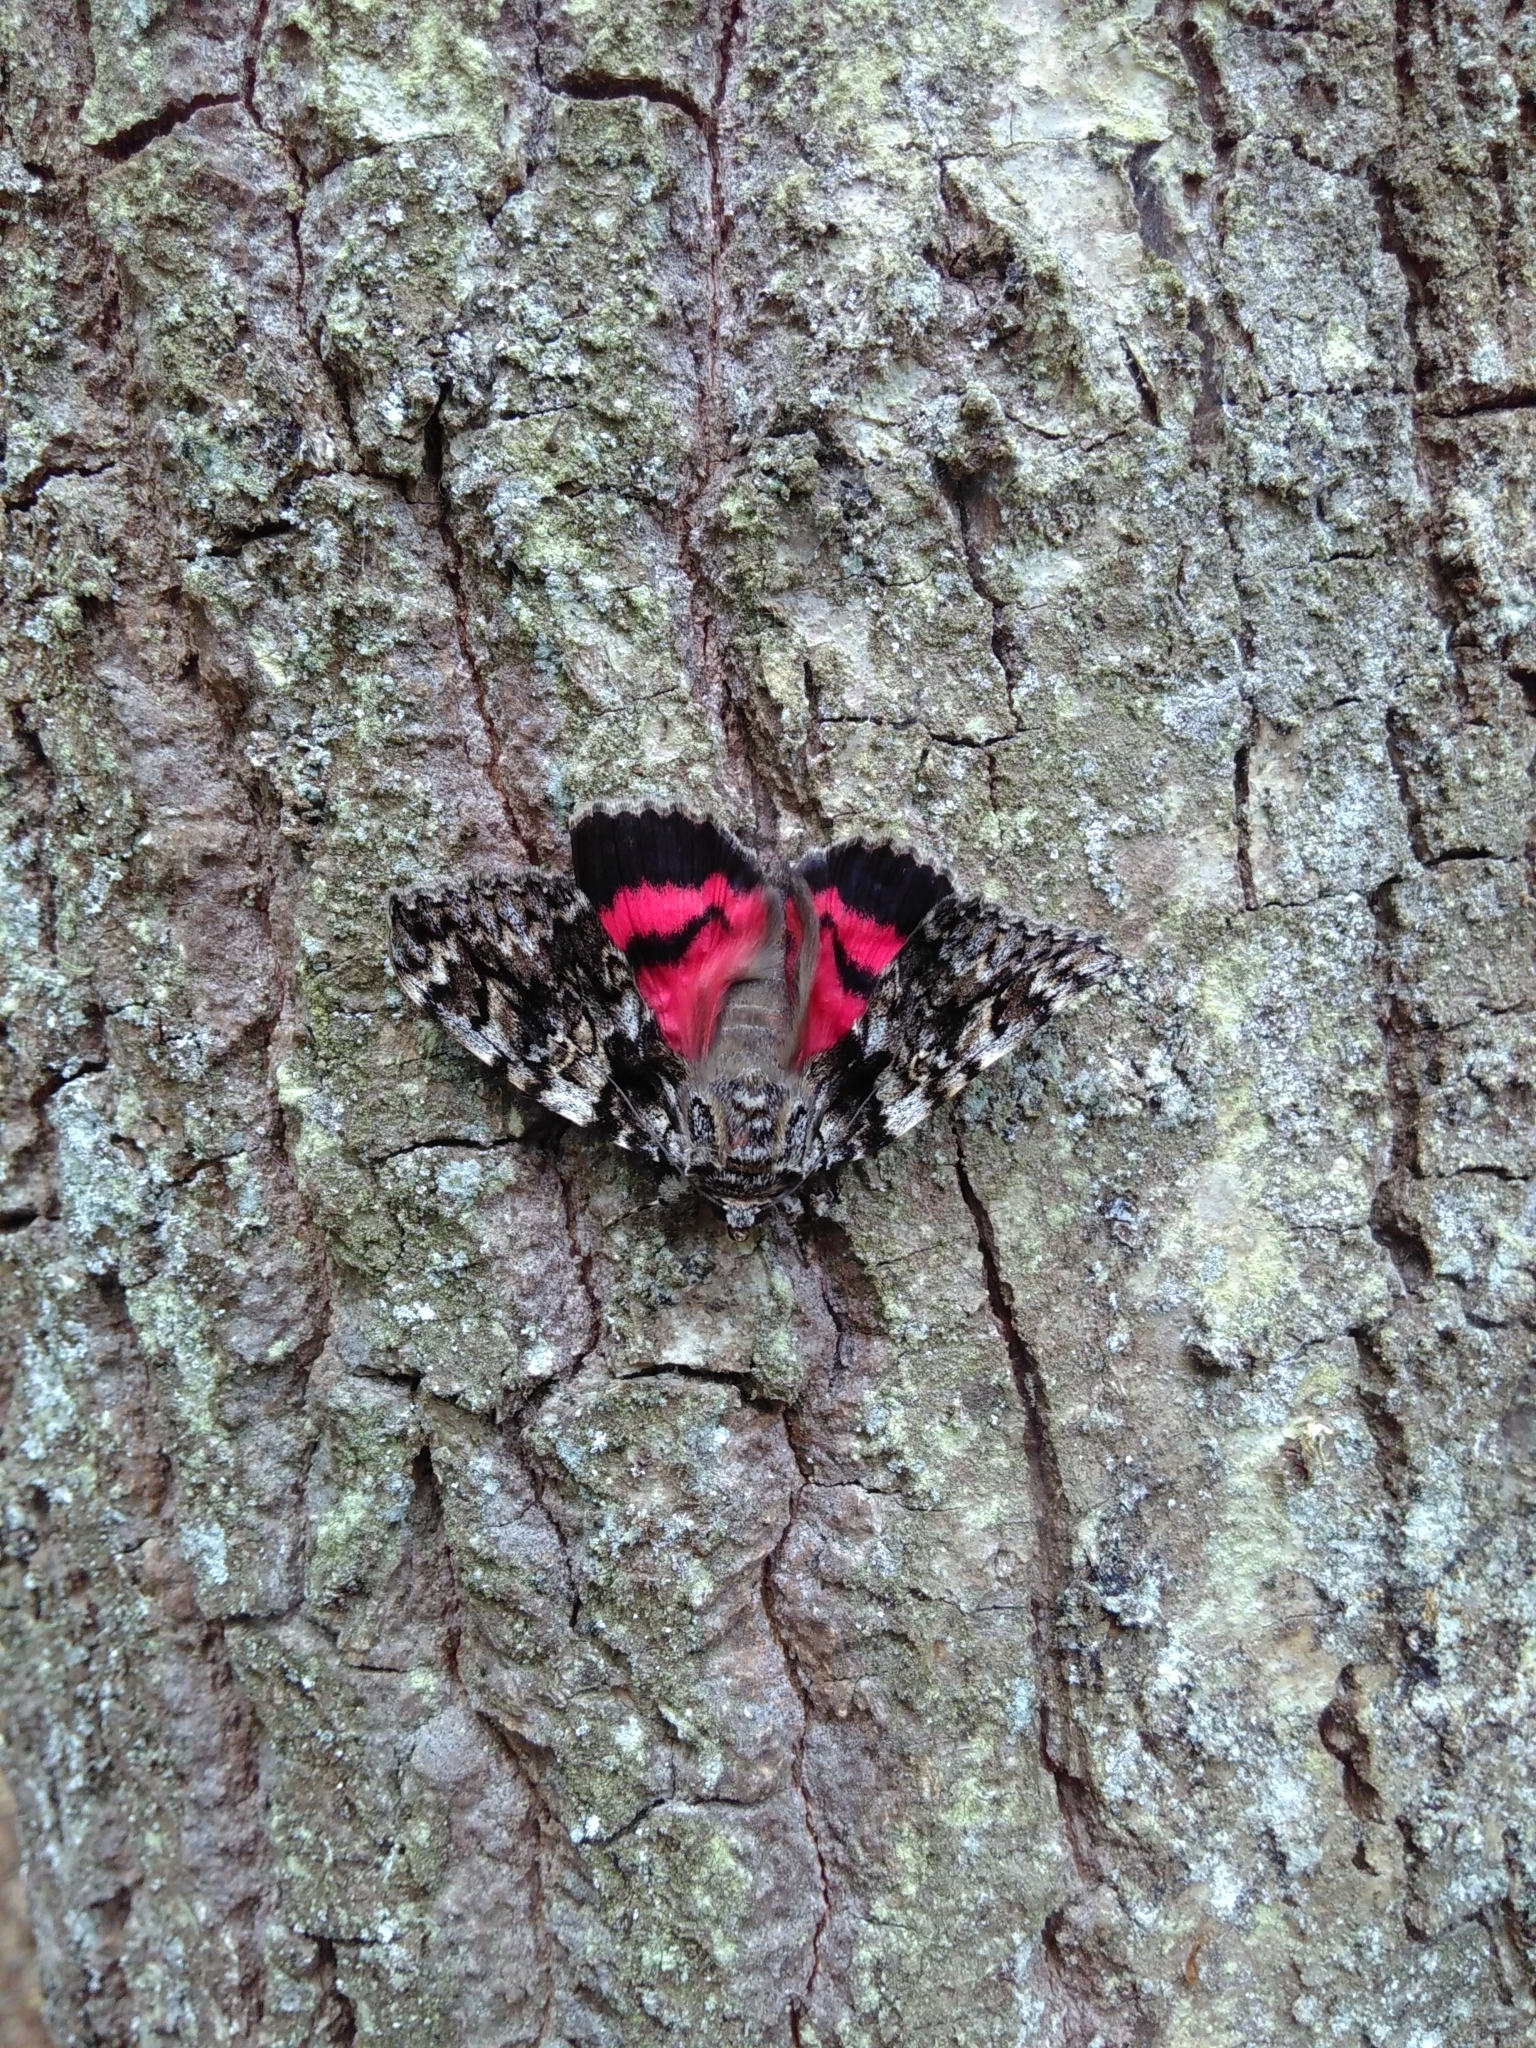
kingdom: Animalia
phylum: Arthropoda
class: Insecta
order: Lepidoptera
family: Erebidae
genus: Catocala
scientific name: Catocala promissa
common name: Light crimson underwing
